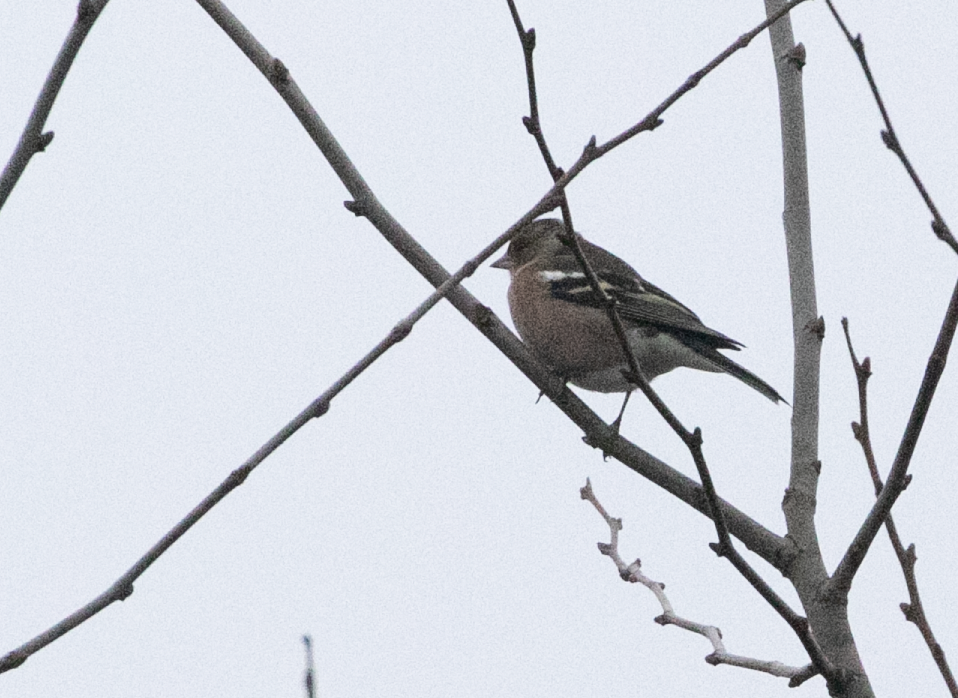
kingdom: Animalia
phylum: Chordata
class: Aves
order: Passeriformes
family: Fringillidae
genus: Fringilla
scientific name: Fringilla coelebs
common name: Common chaffinch
